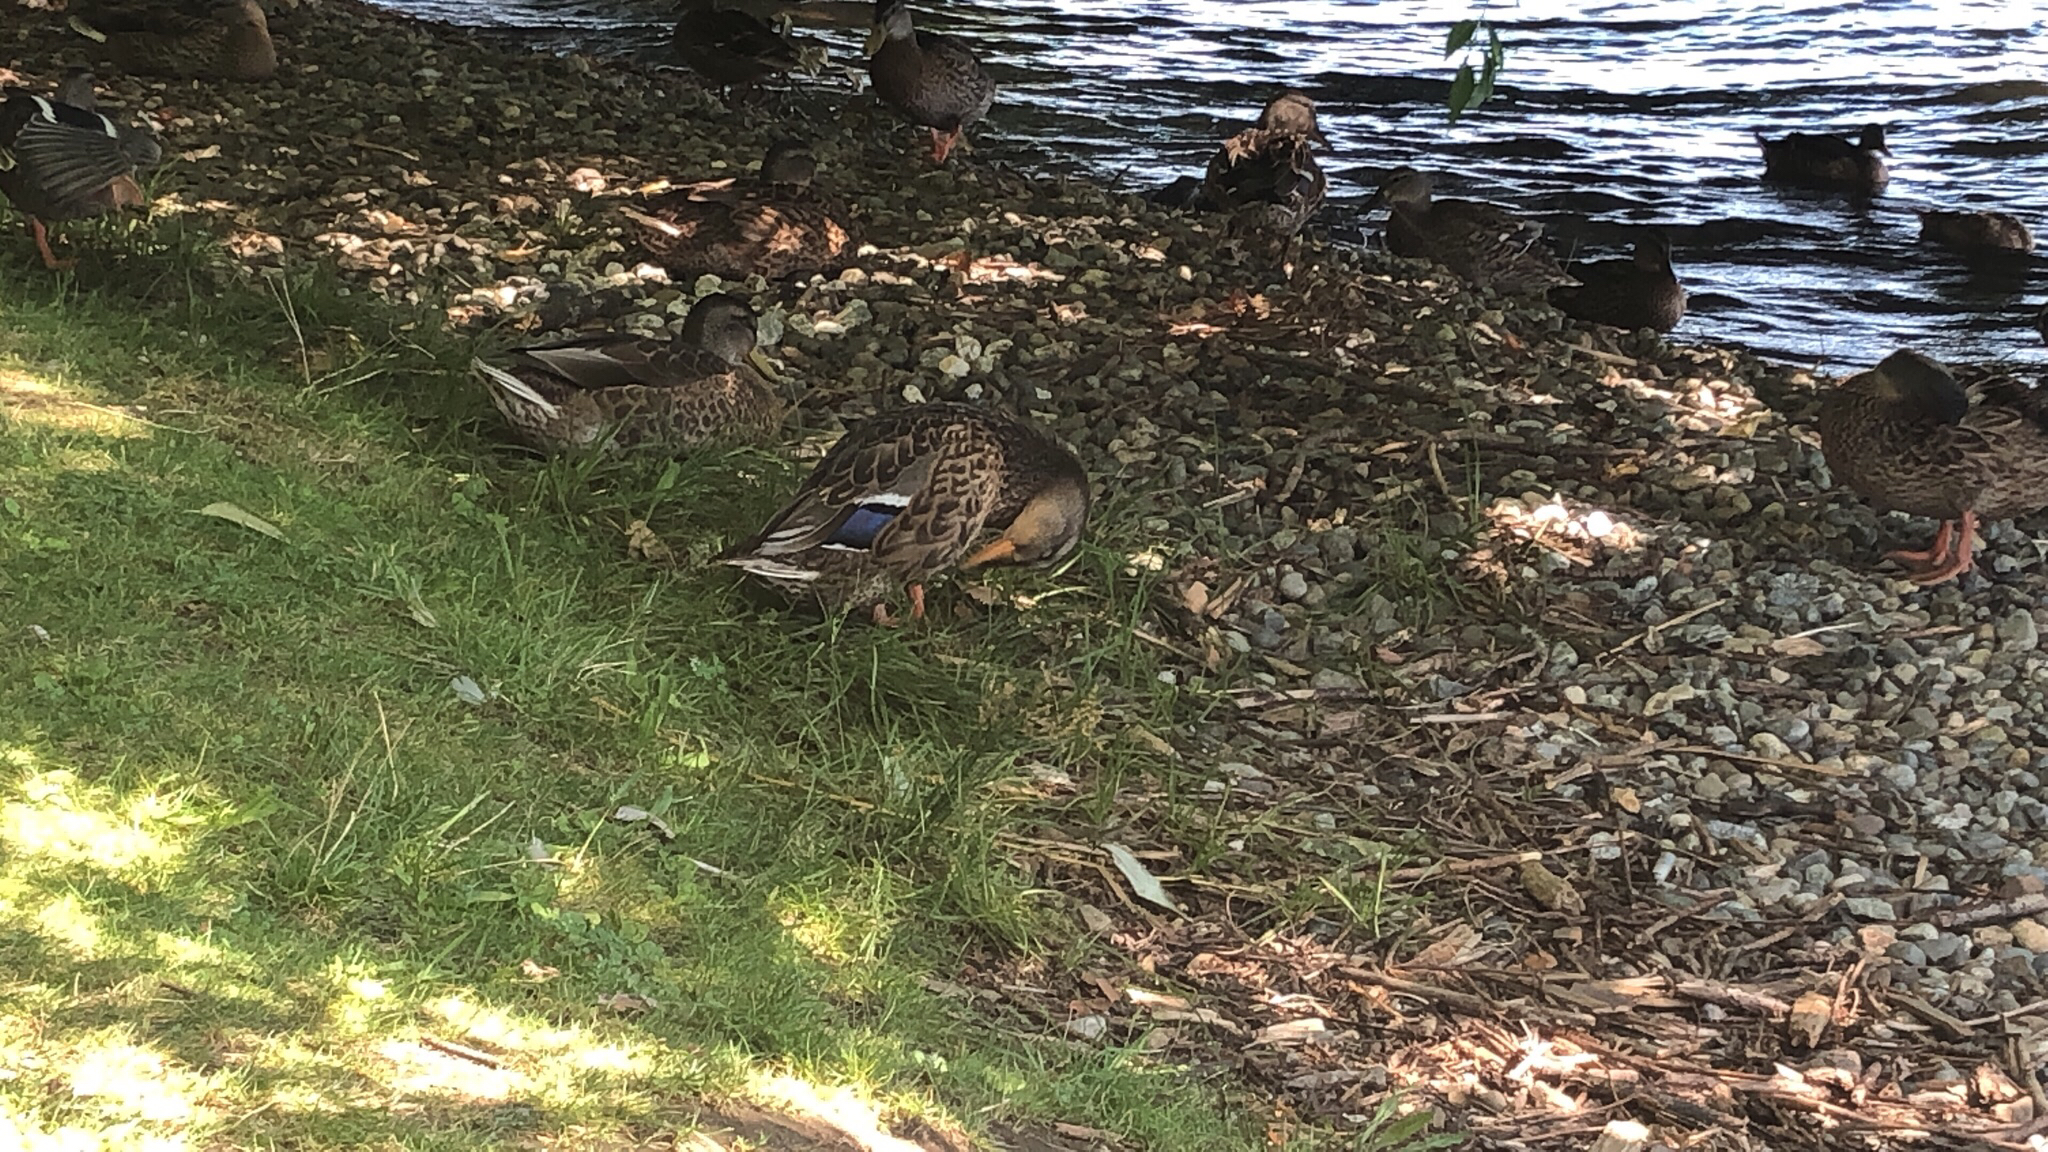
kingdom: Animalia
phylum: Chordata
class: Aves
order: Anseriformes
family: Anatidae
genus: Anas
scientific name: Anas platyrhynchos
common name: Mallard
